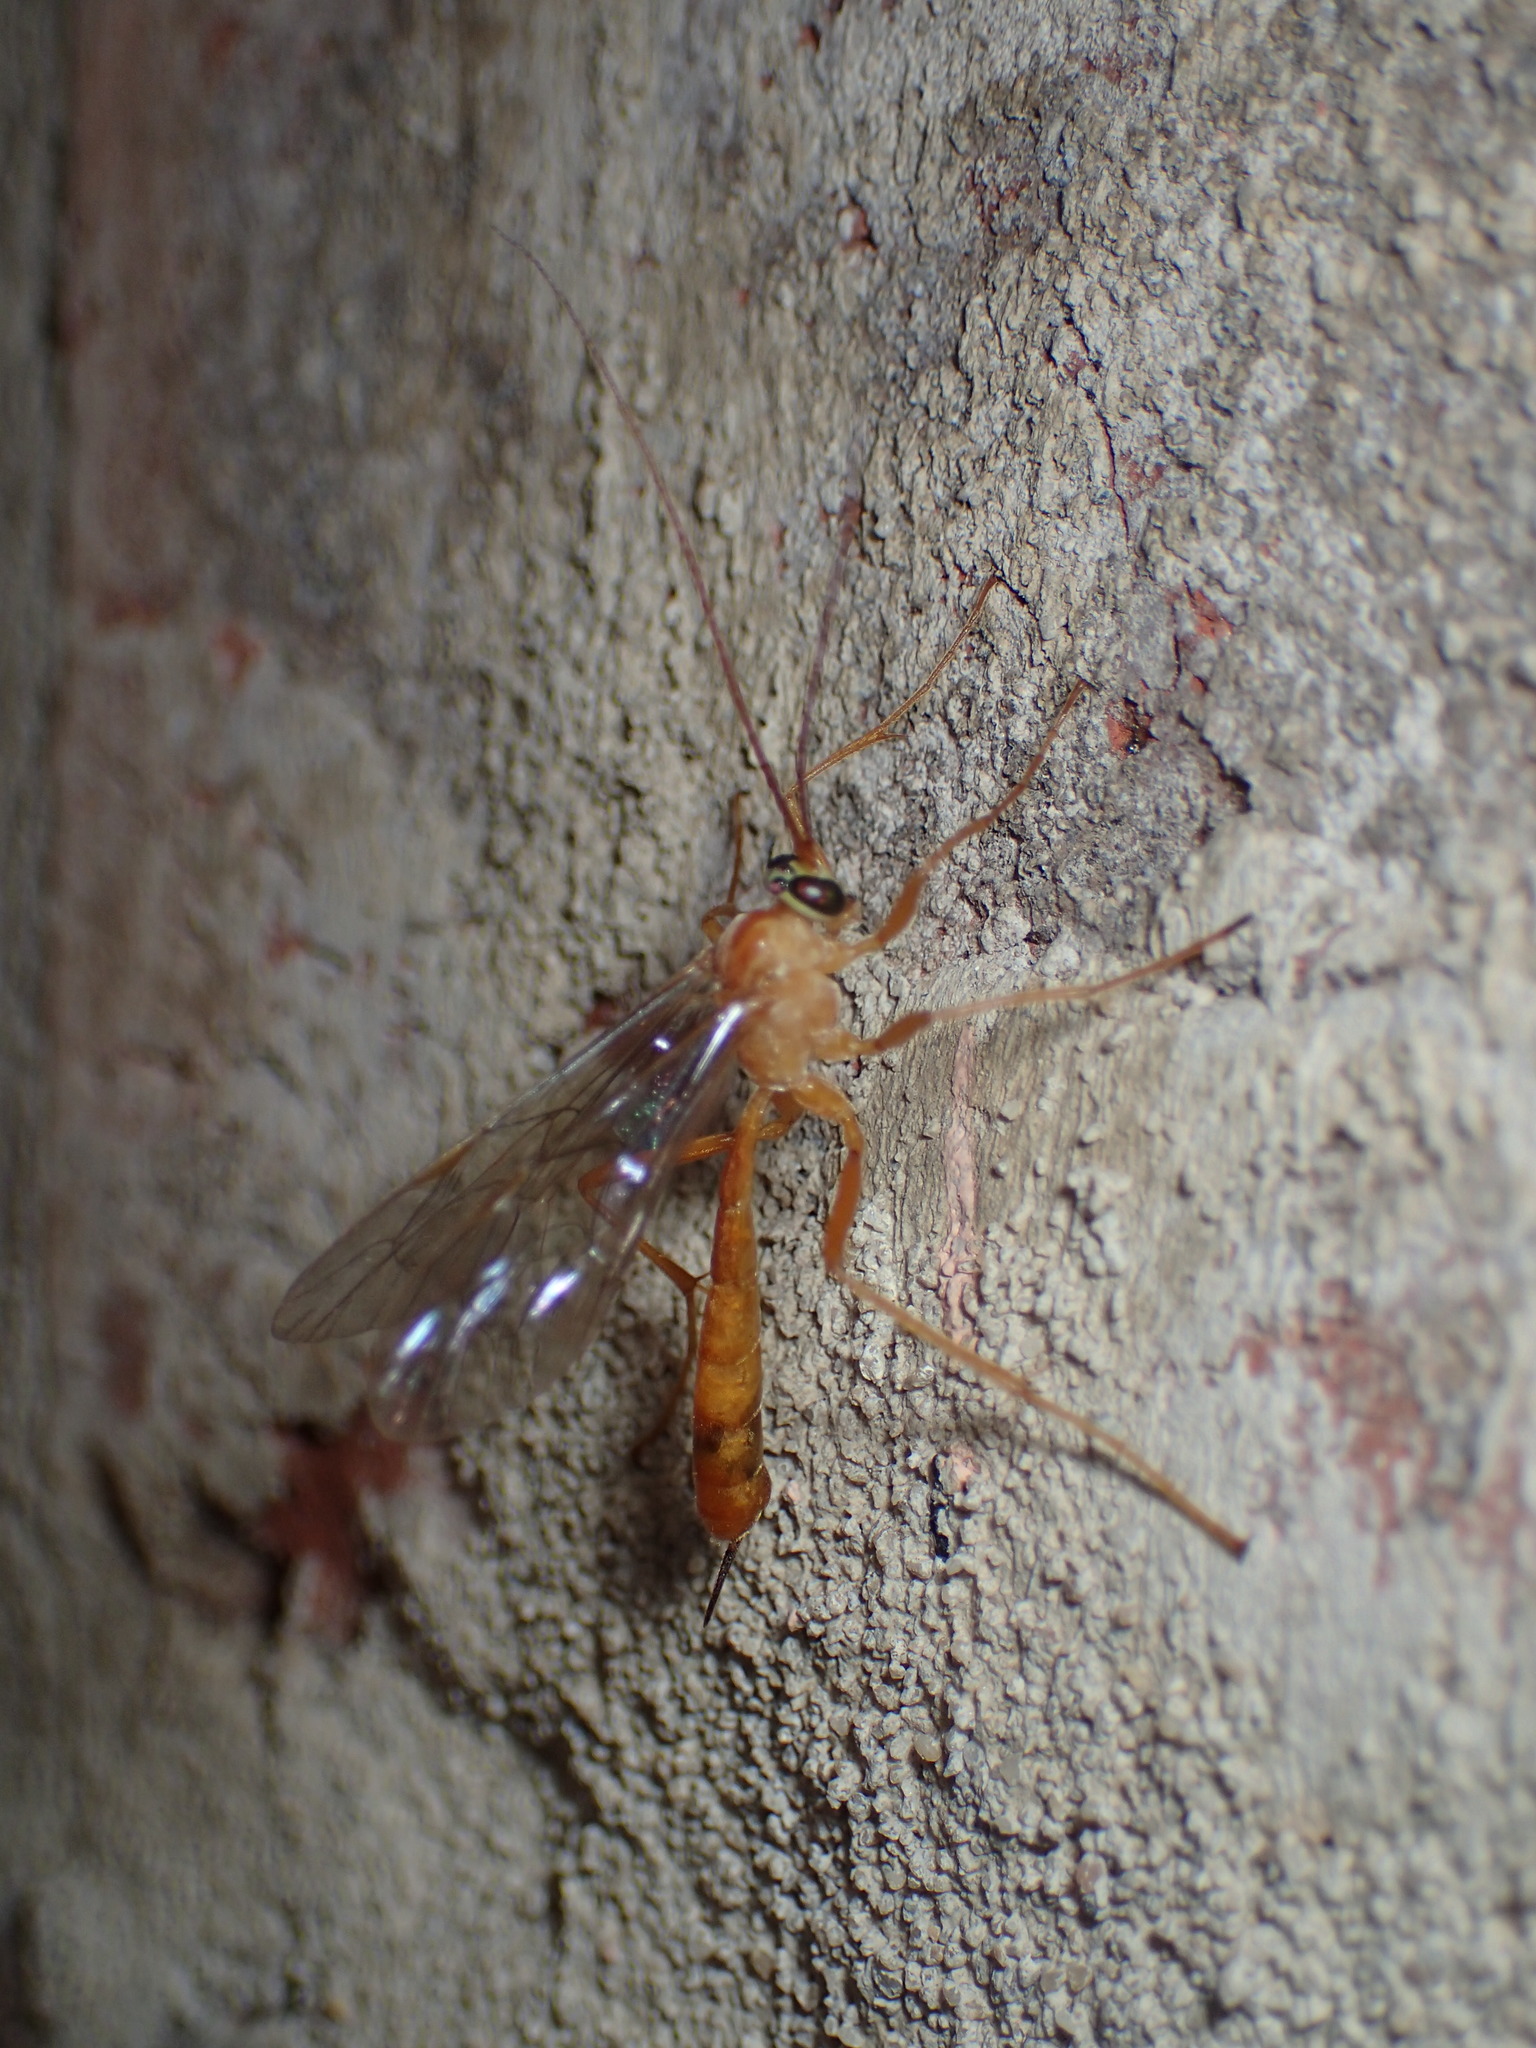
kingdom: Animalia
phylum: Arthropoda
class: Insecta
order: Hymenoptera
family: Ichneumonidae
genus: Netelia
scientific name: Netelia
